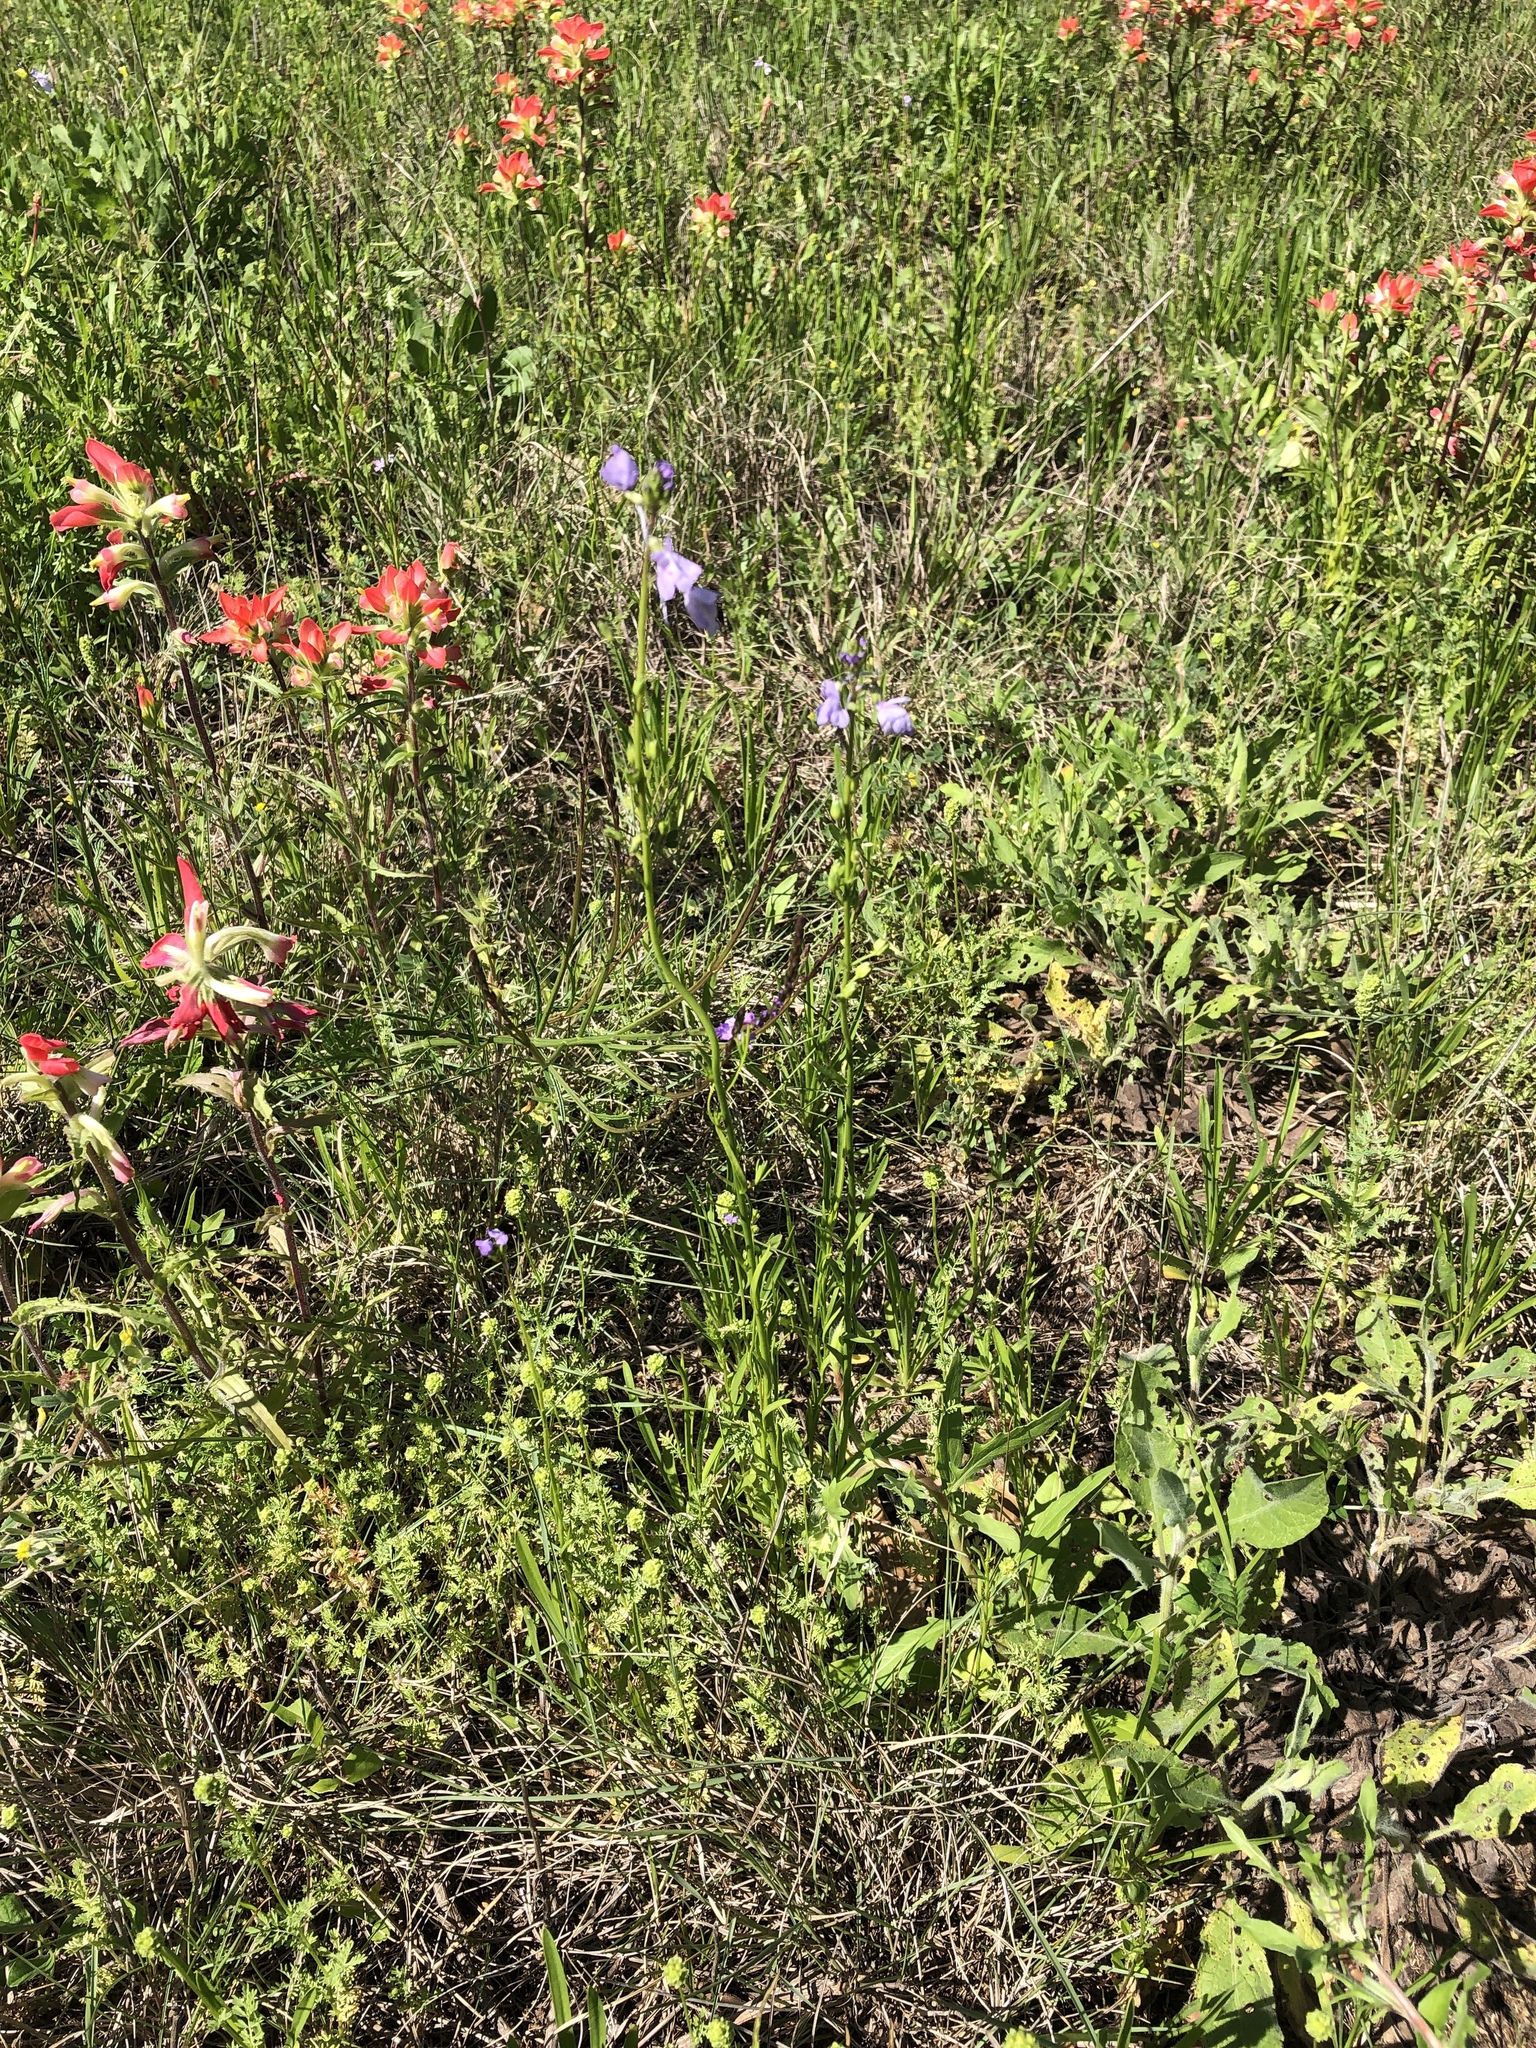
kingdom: Plantae
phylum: Tracheophyta
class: Magnoliopsida
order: Lamiales
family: Plantaginaceae
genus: Nuttallanthus
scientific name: Nuttallanthus texanus
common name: Texas toadflax
